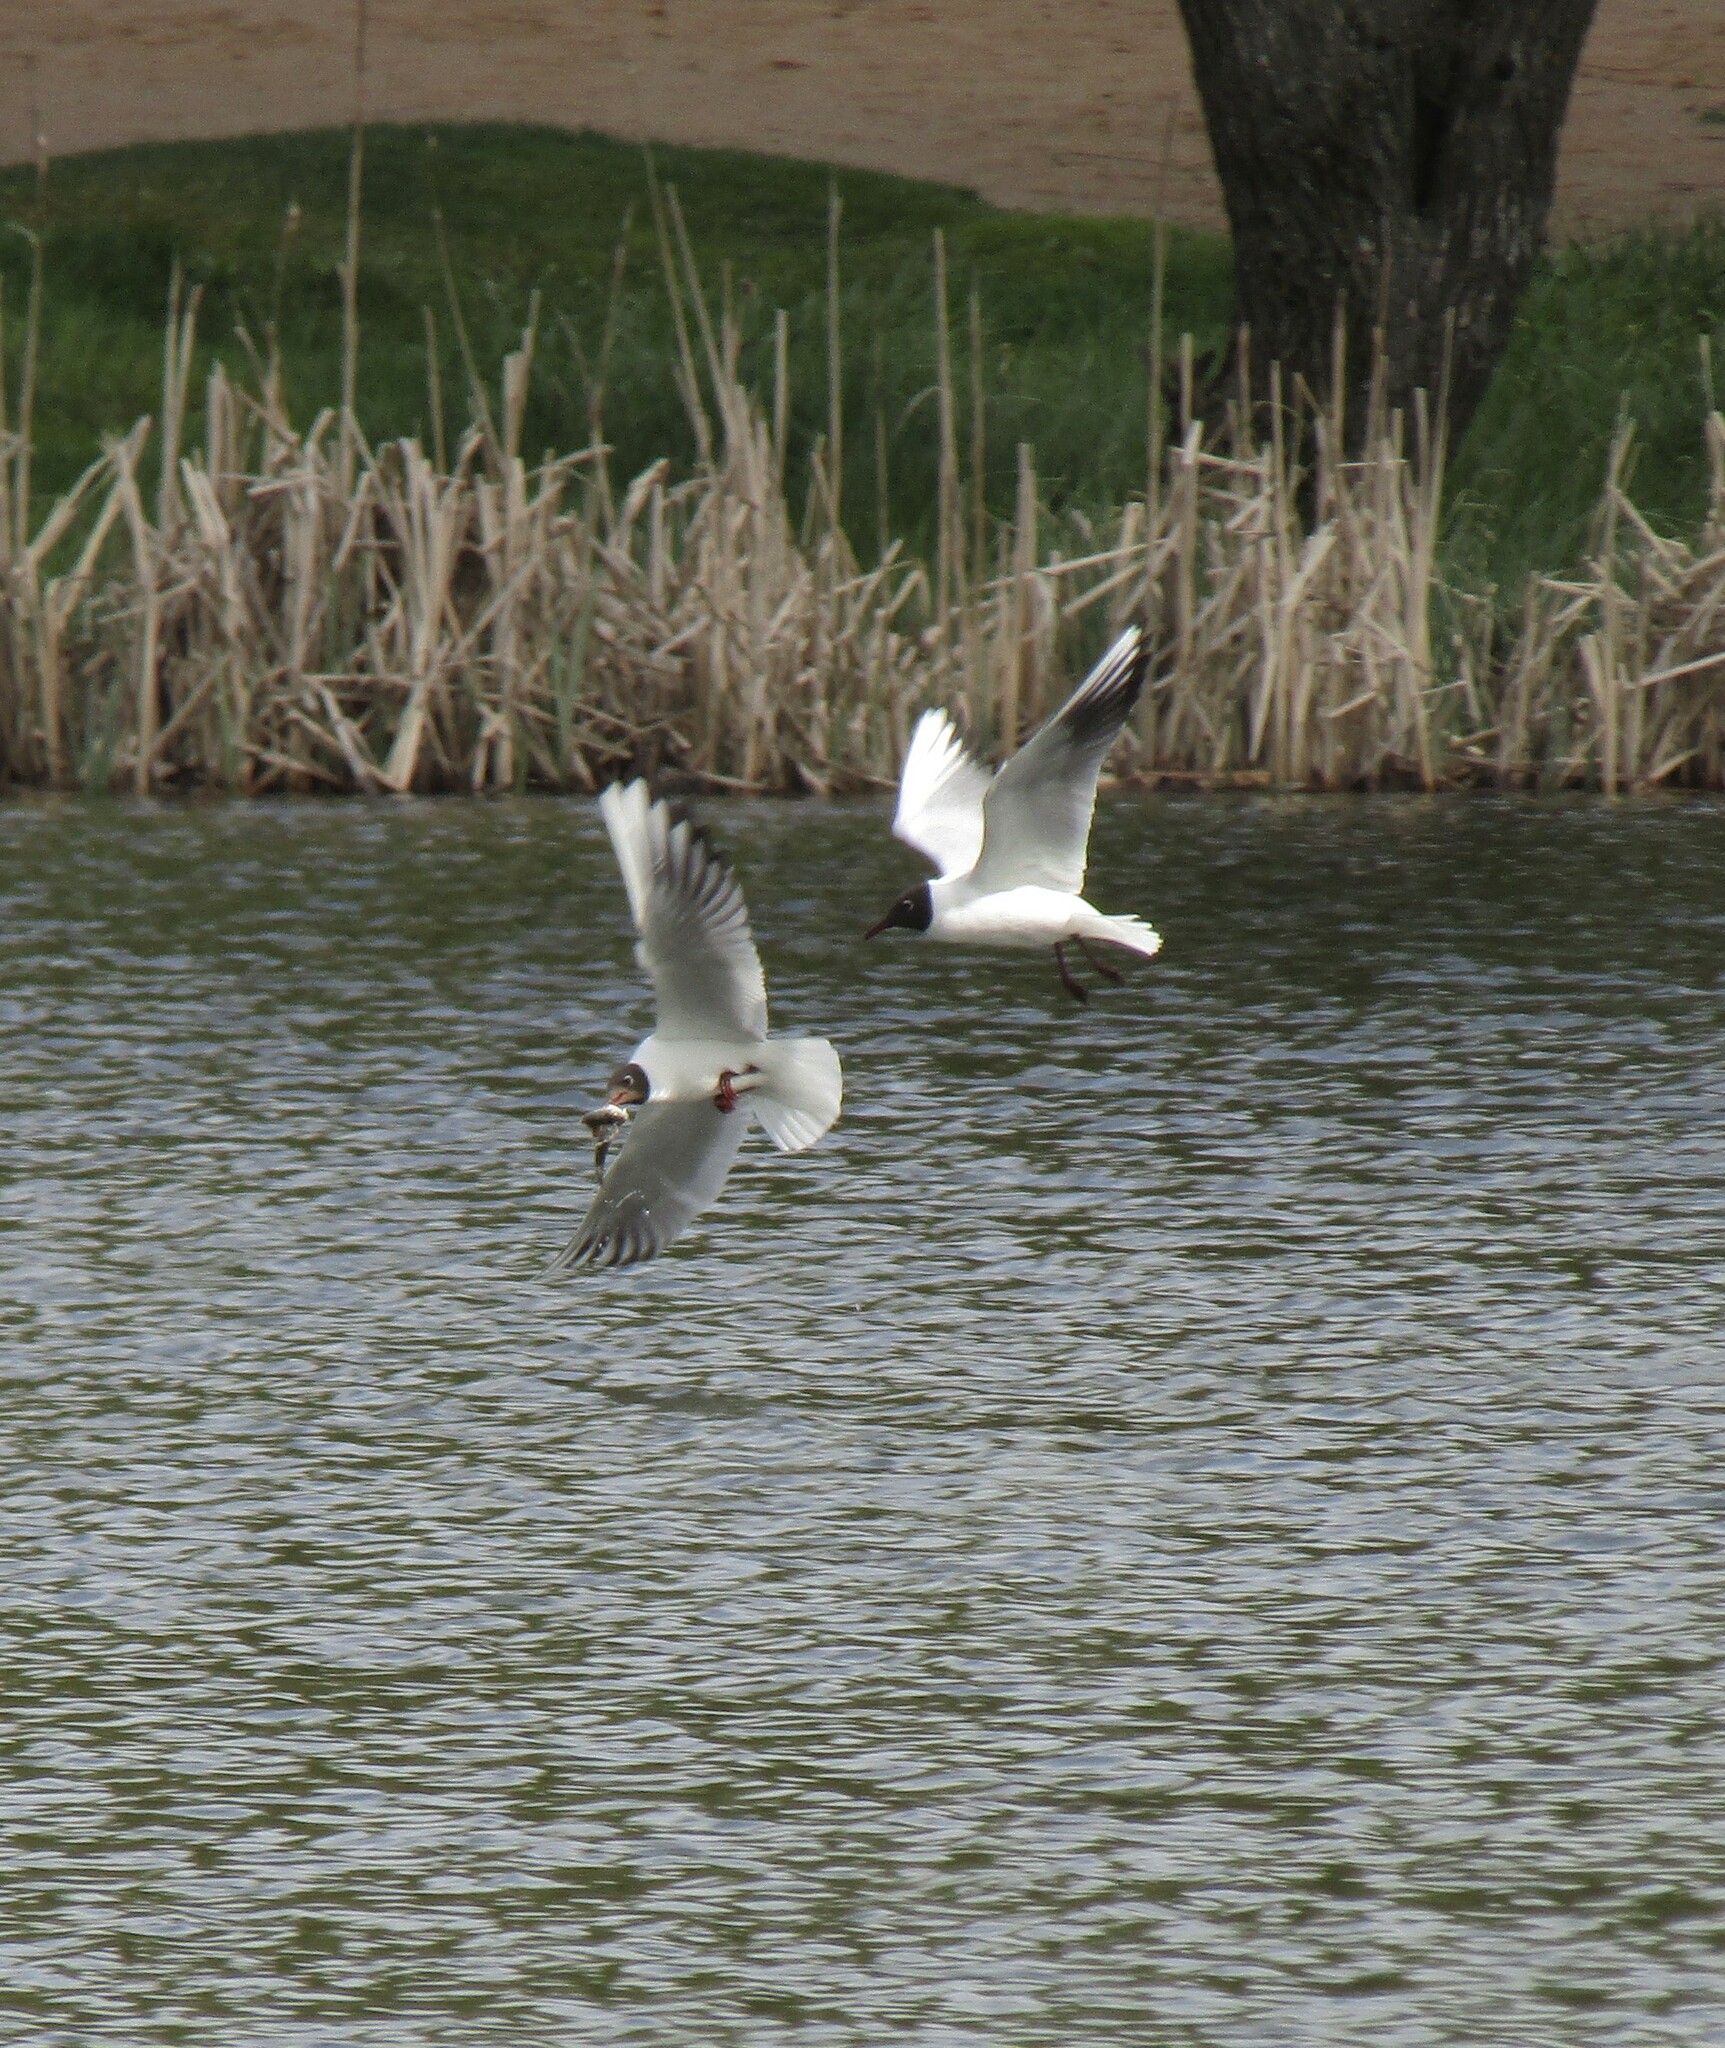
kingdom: Animalia
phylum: Chordata
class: Aves
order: Charadriiformes
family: Laridae
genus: Chroicocephalus
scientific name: Chroicocephalus ridibundus
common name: Black-headed gull
